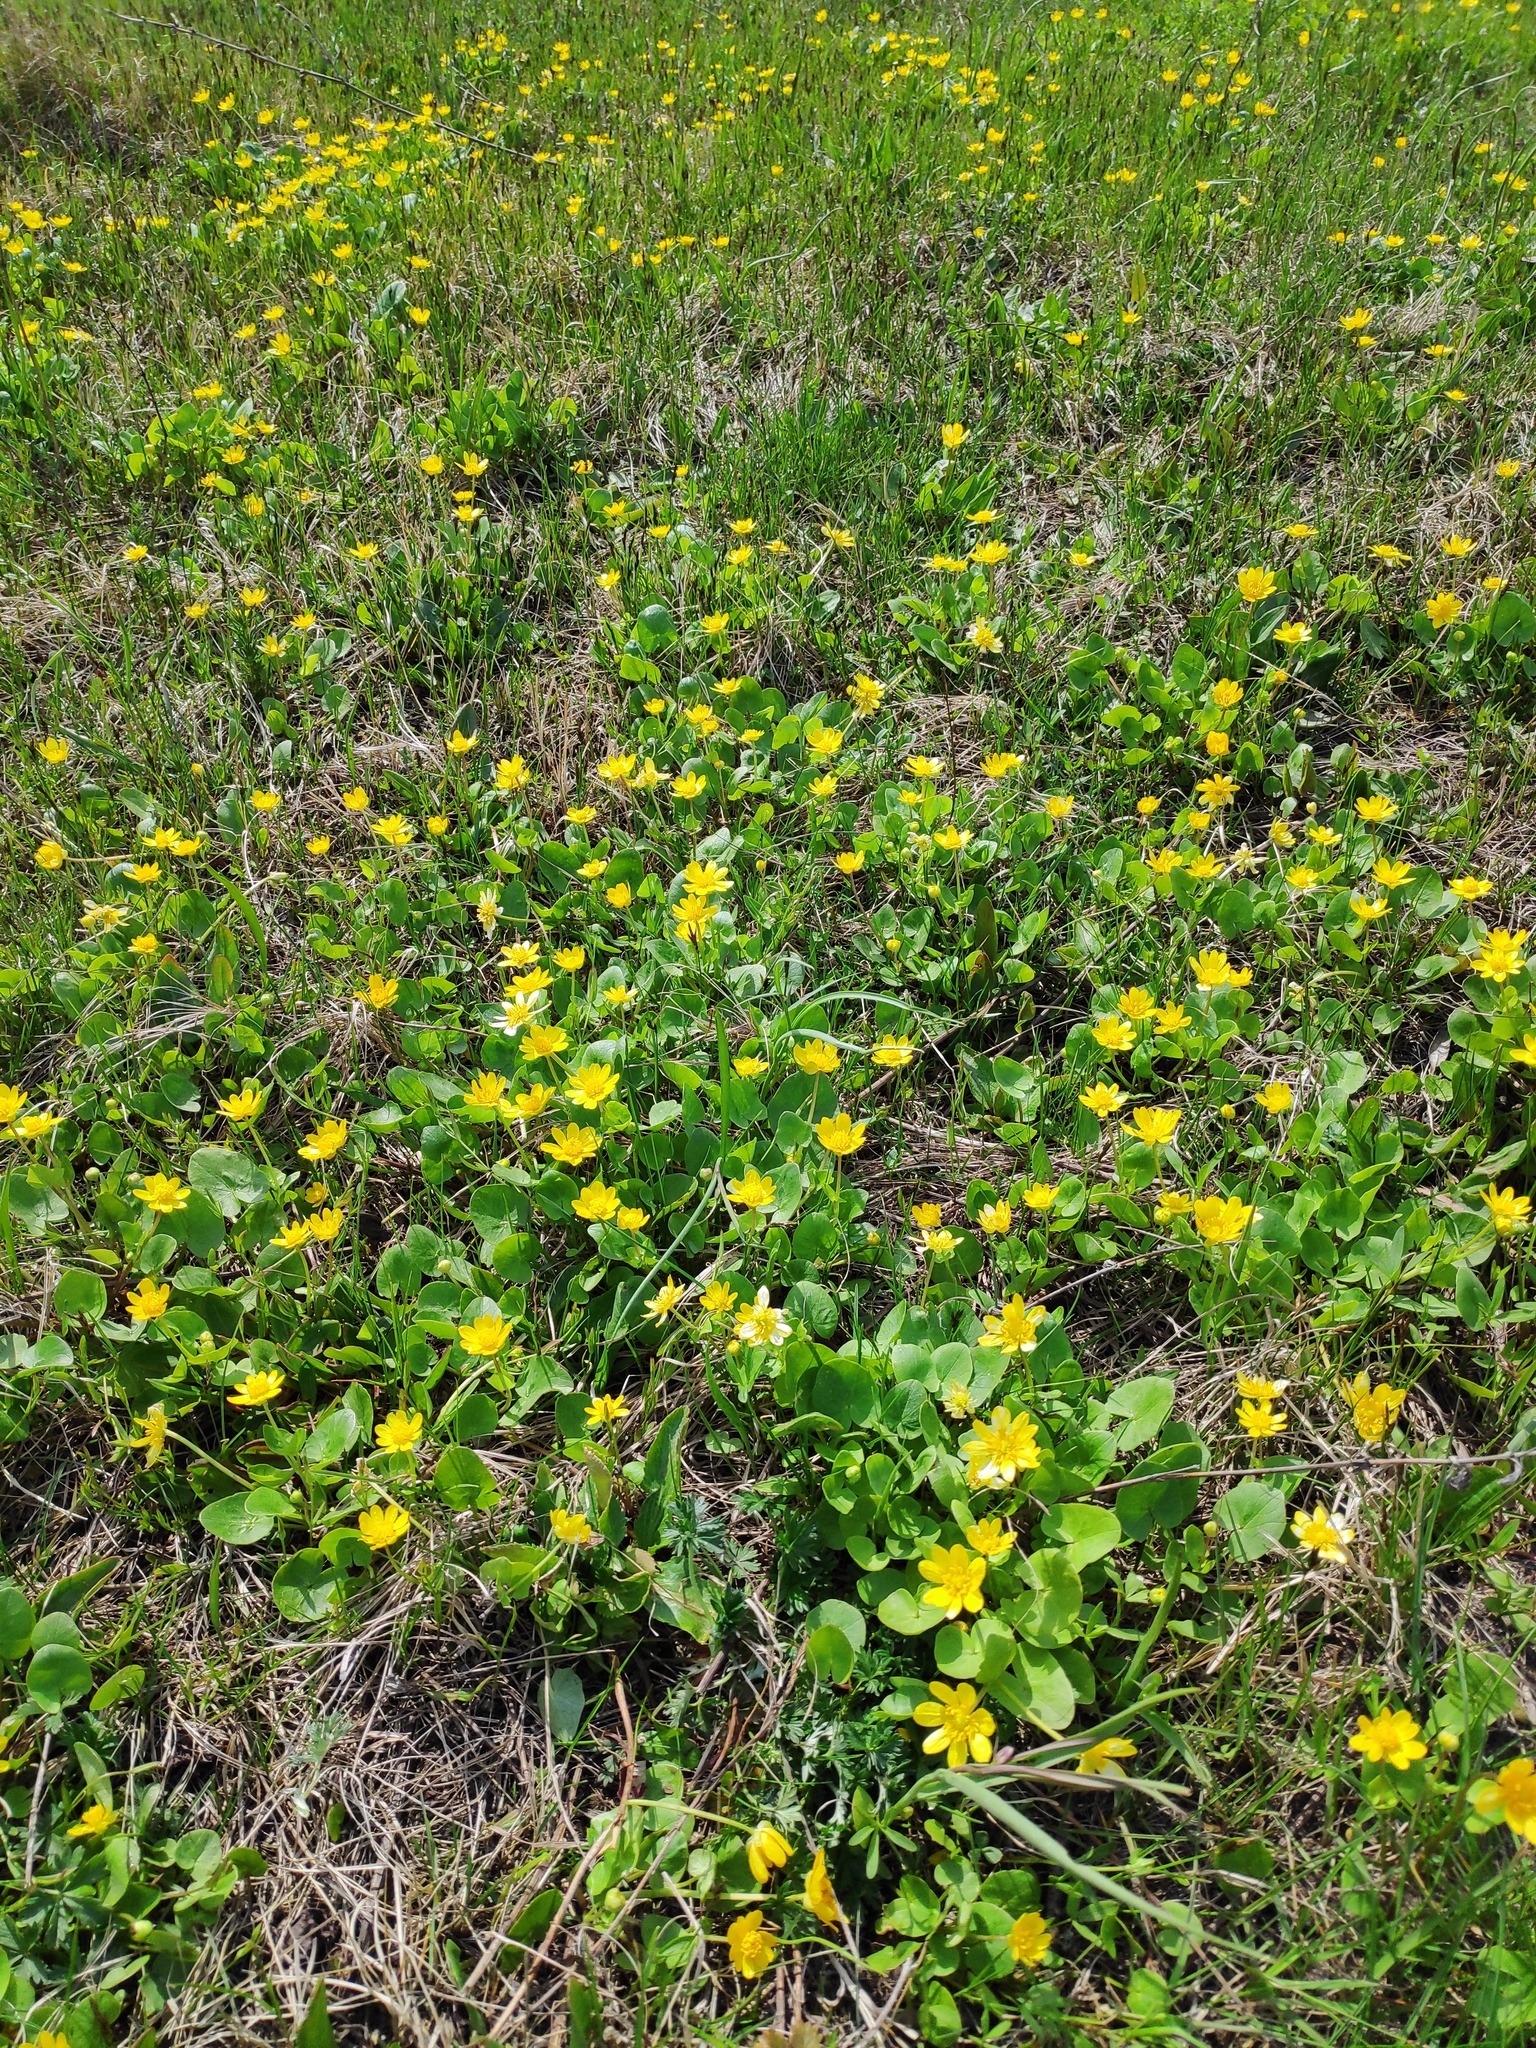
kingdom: Plantae
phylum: Tracheophyta
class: Magnoliopsida
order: Ranunculales
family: Ranunculaceae
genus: Ficaria
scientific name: Ficaria verna
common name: Lesser celandine
